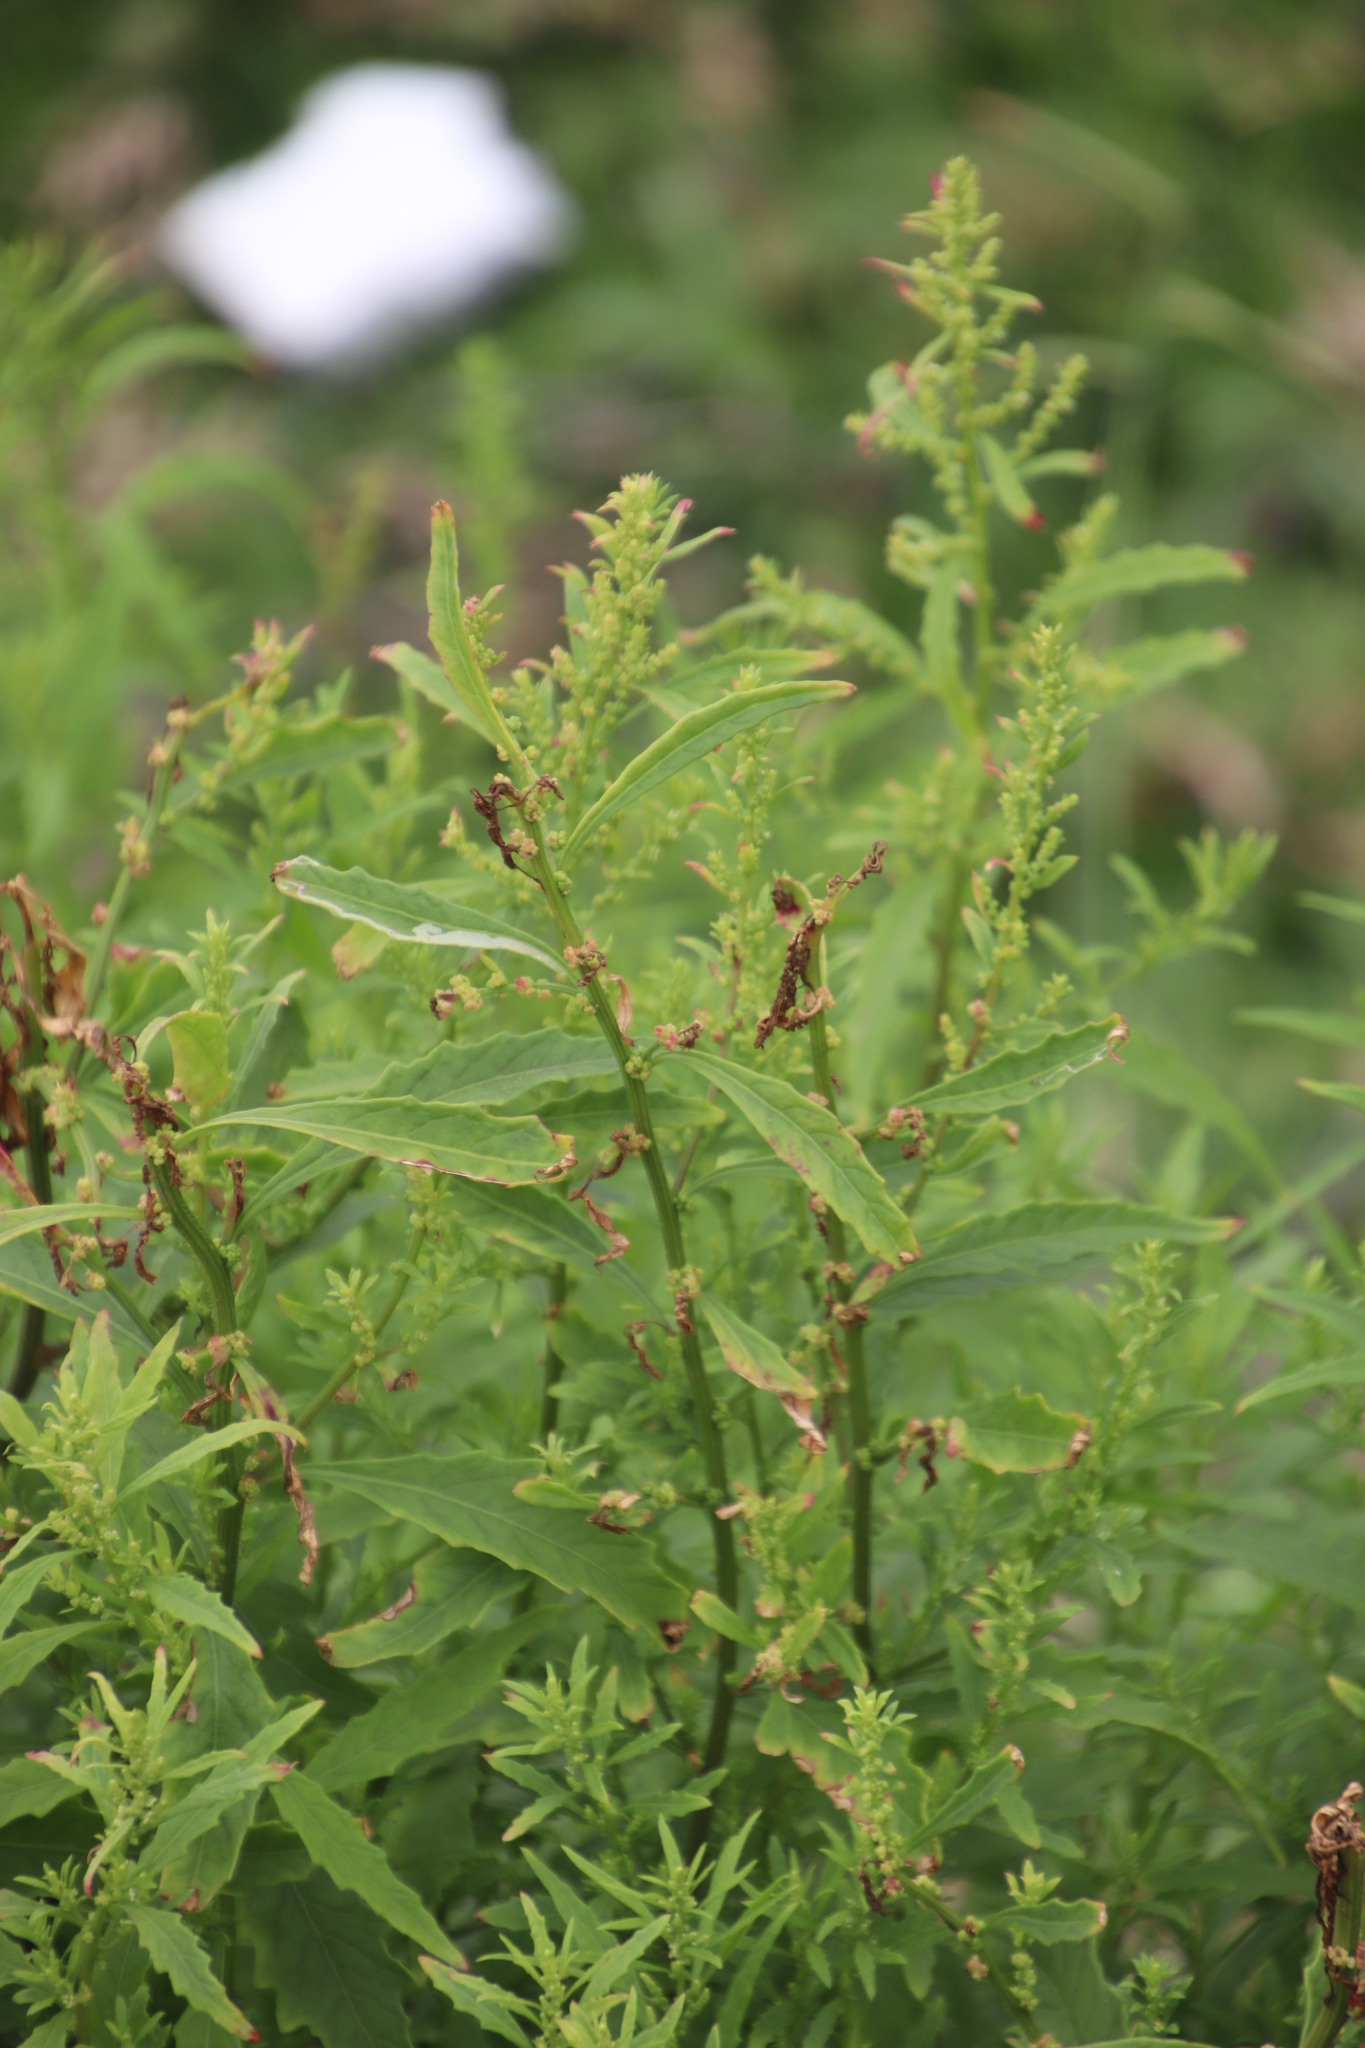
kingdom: Plantae
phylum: Tracheophyta
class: Magnoliopsida
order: Caryophyllales
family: Amaranthaceae
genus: Dysphania
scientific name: Dysphania ambrosioides
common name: Wormseed
